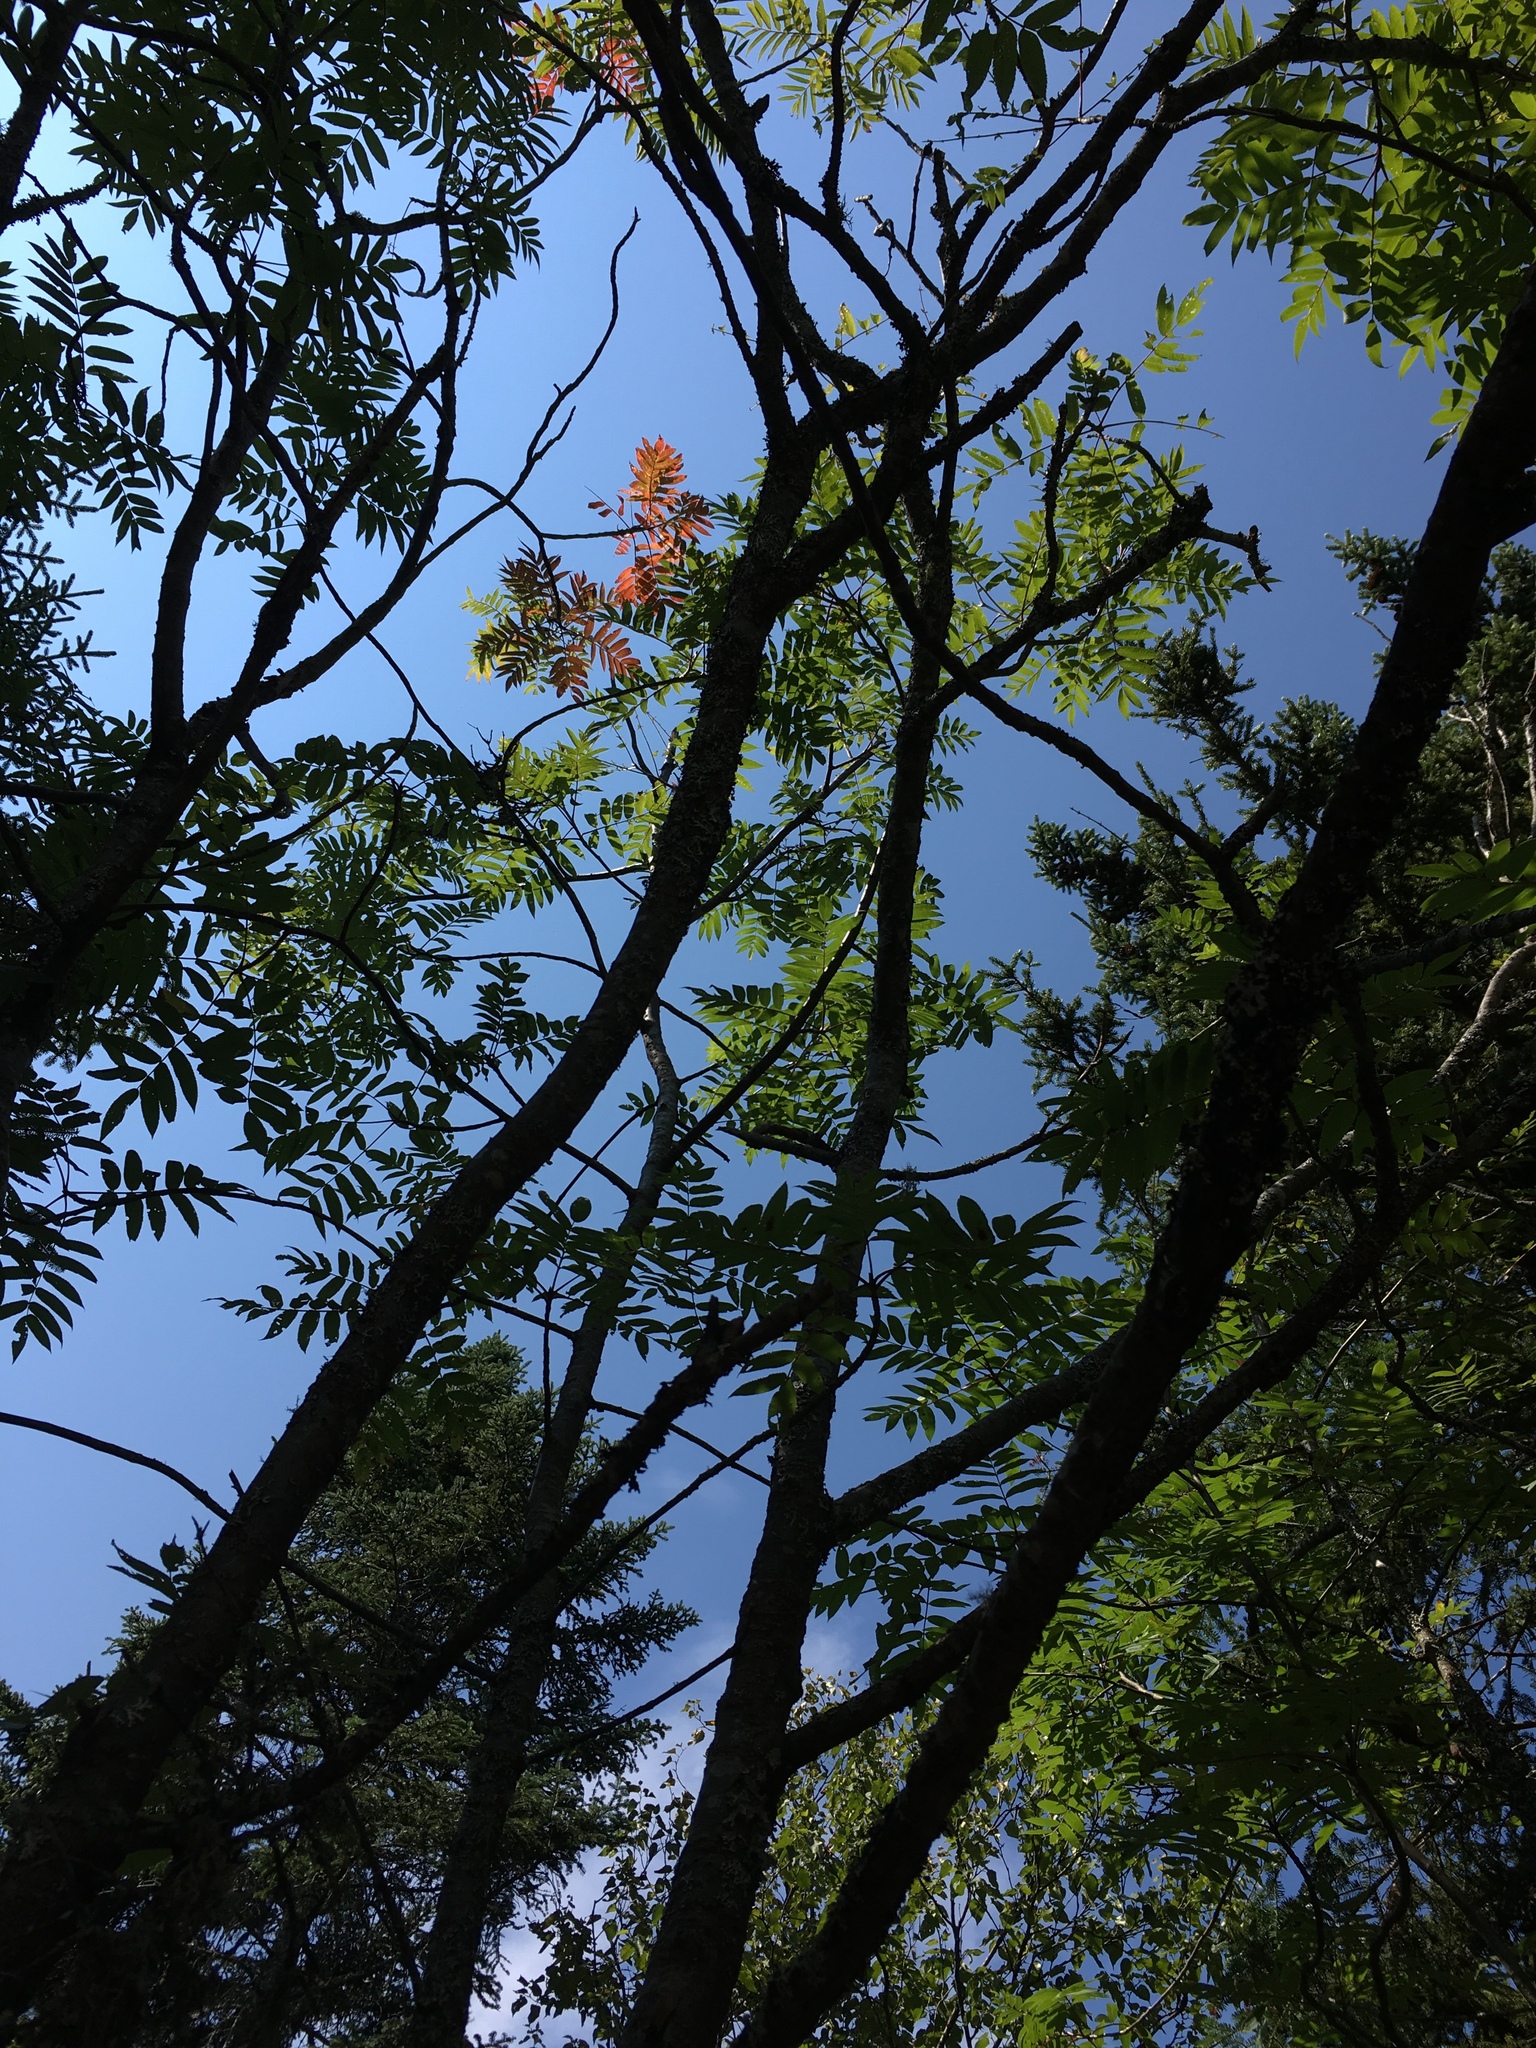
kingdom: Plantae
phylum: Tracheophyta
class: Magnoliopsida
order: Rosales
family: Rosaceae
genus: Sorbus
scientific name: Sorbus americana
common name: American mountain-ash
